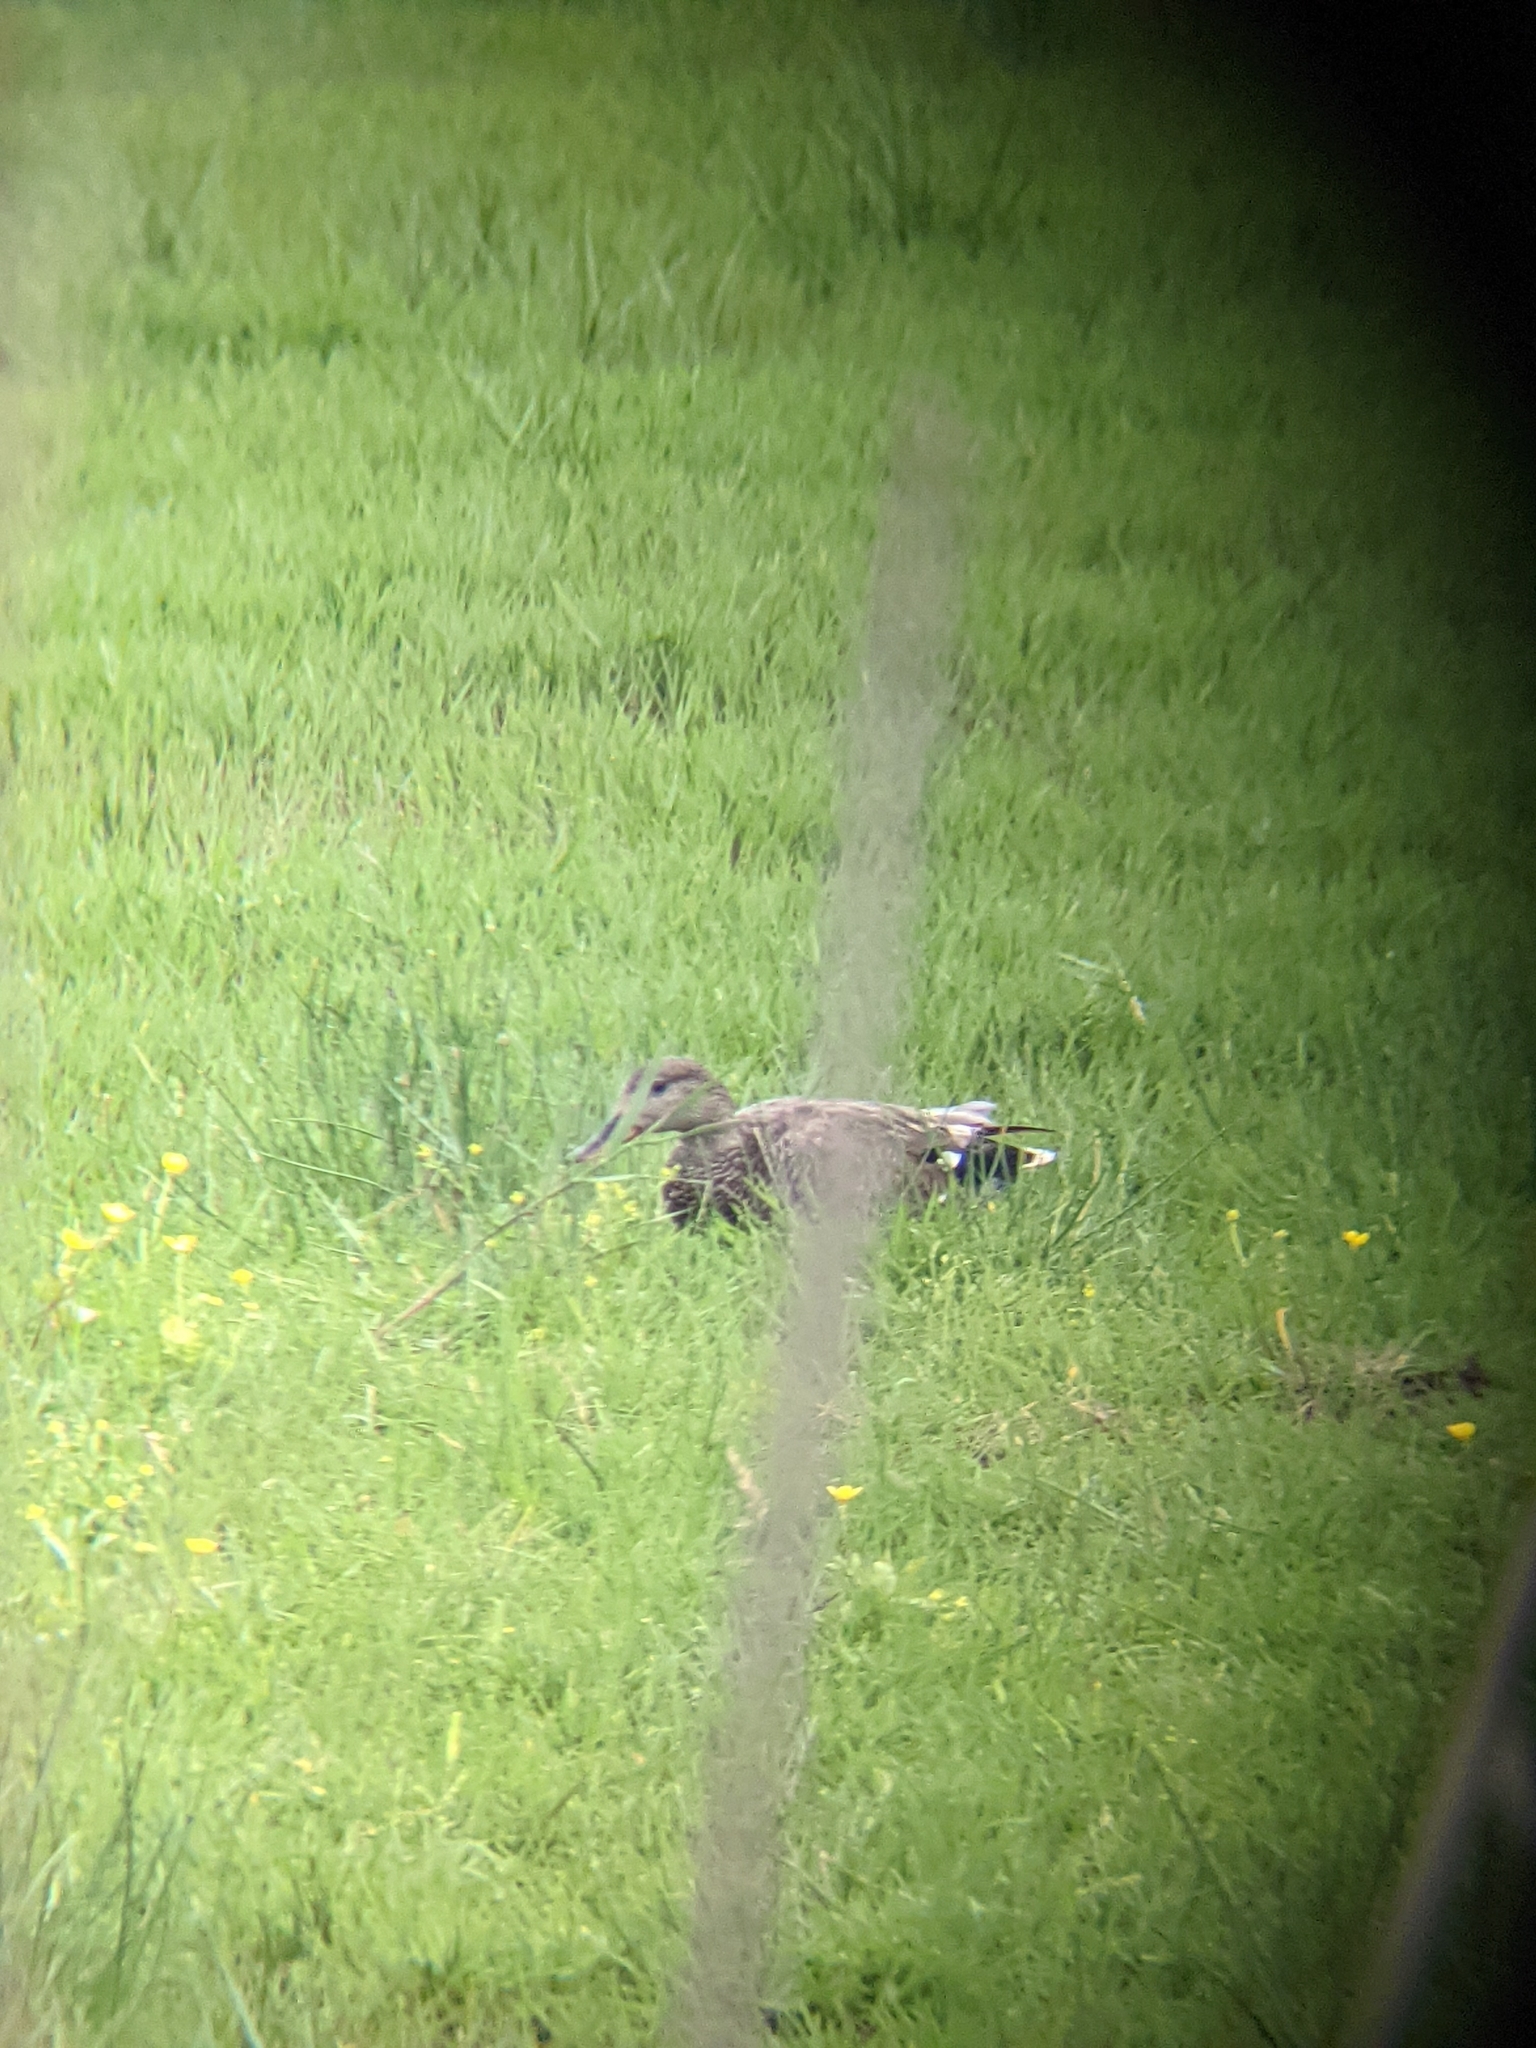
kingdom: Animalia
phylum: Chordata
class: Aves
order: Anseriformes
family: Anatidae
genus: Mareca
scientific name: Mareca strepera
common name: Gadwall
